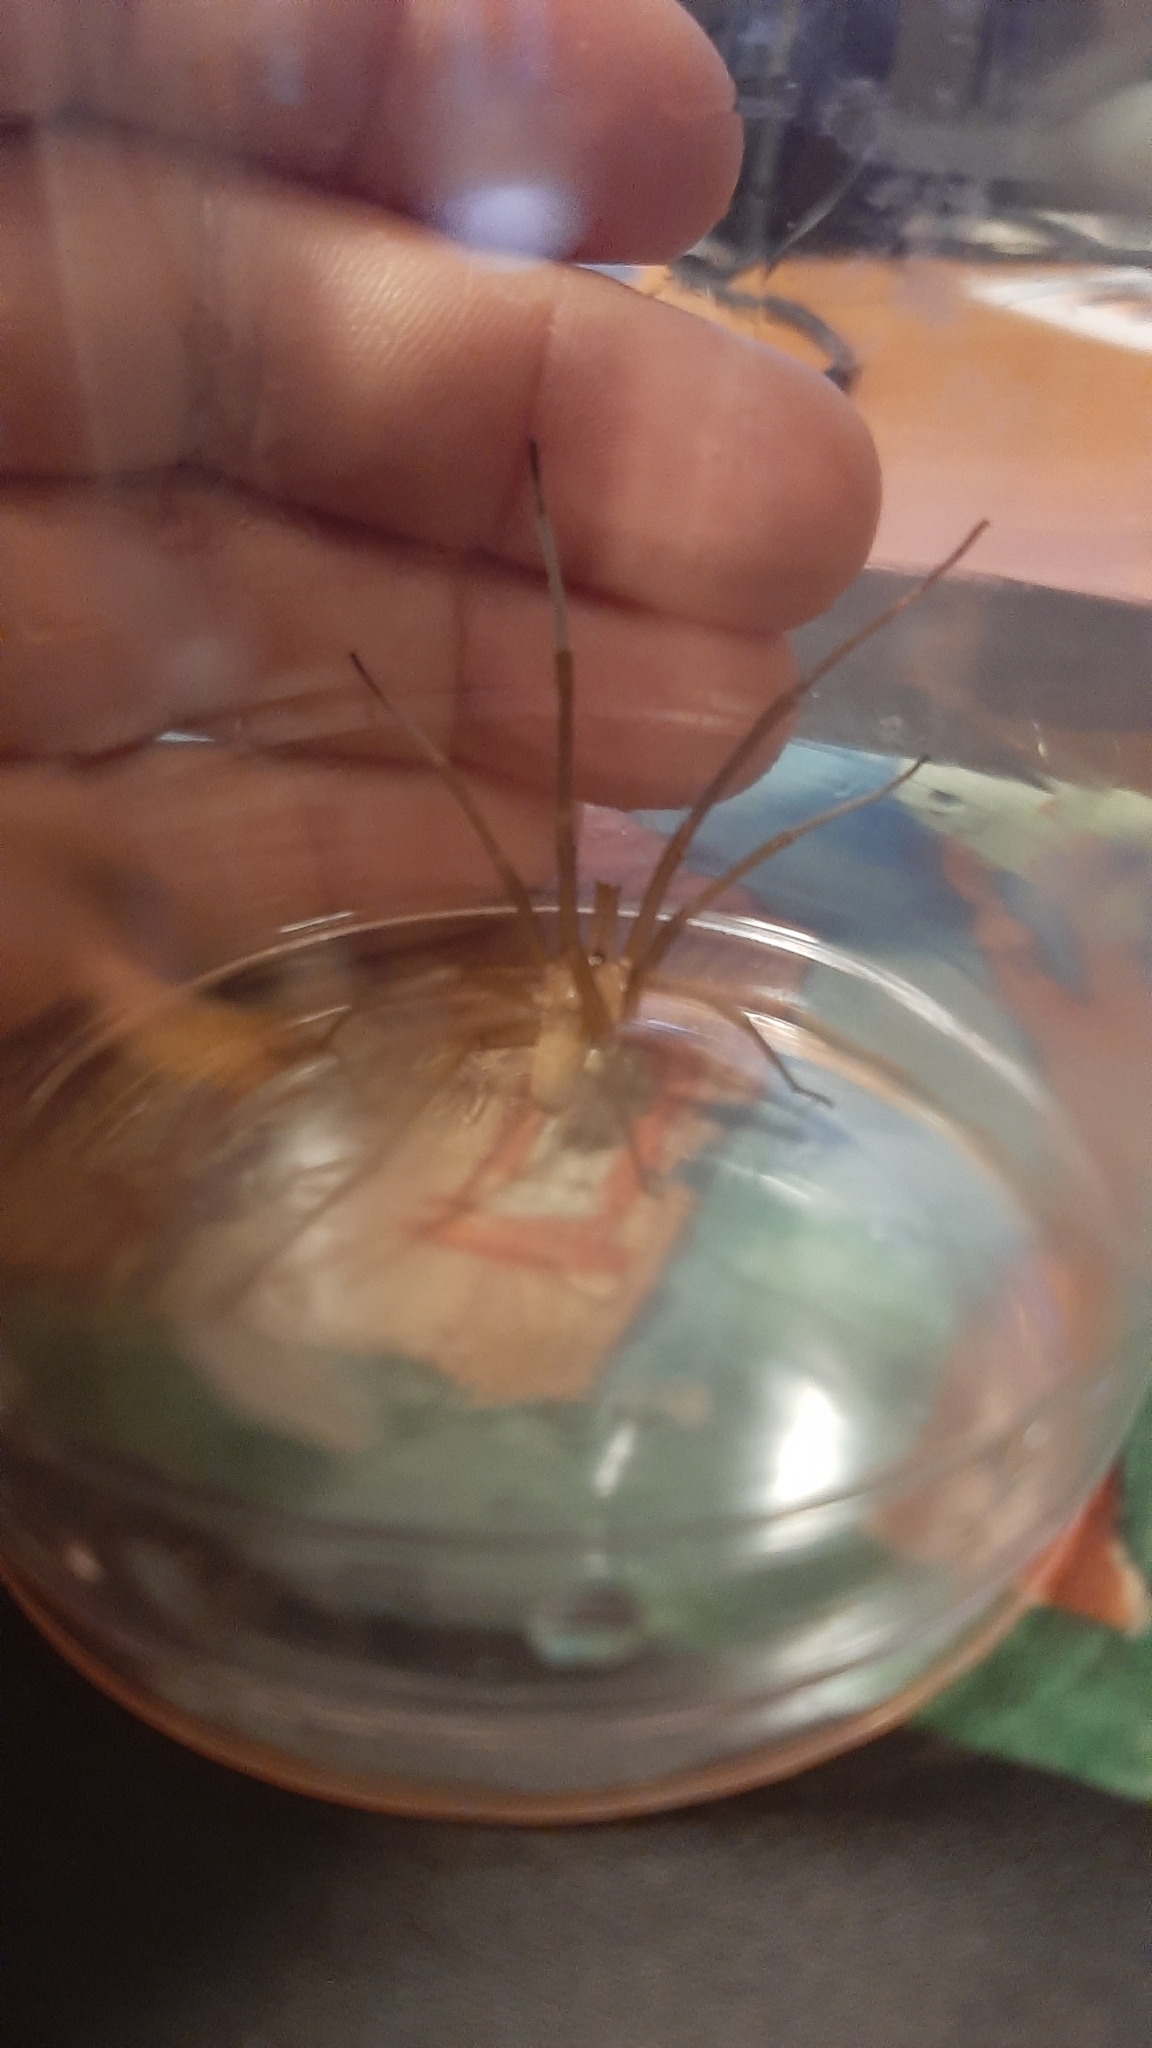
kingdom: Animalia
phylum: Arthropoda
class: Arachnida
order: Araneae
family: Filistatidae
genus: Kukulcania
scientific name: Kukulcania hibernalis
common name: Crevice weaver
